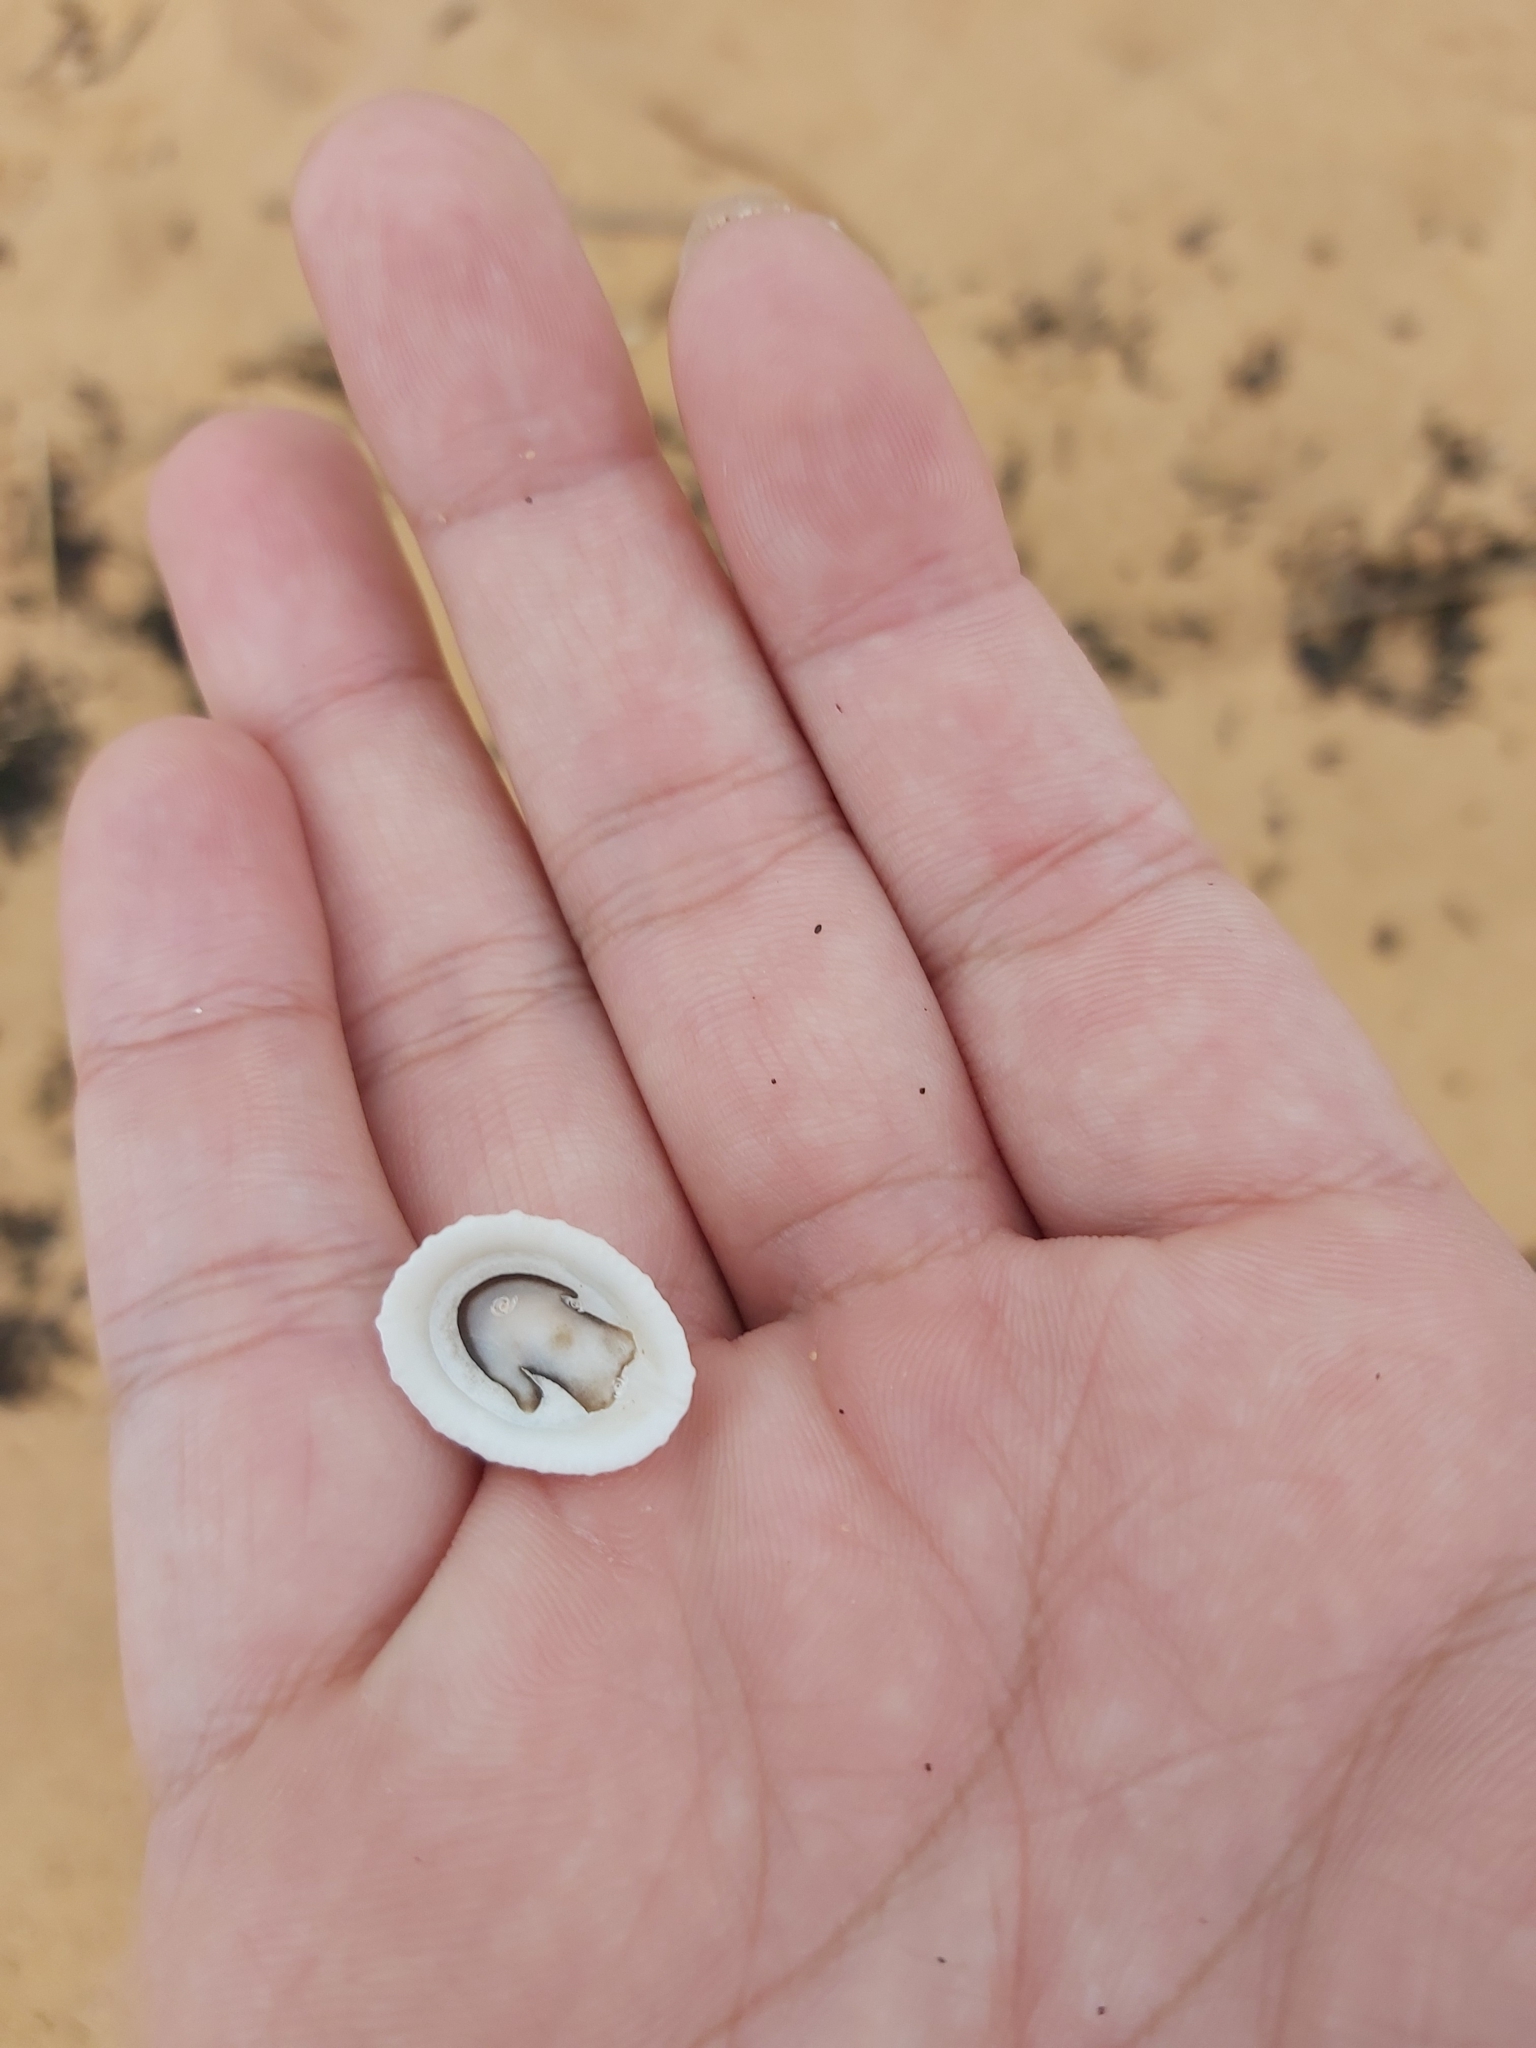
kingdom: Animalia
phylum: Mollusca
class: Gastropoda
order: Lepetellida
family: Fissurellidae
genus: Montfortula
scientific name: Montfortula rugosa
